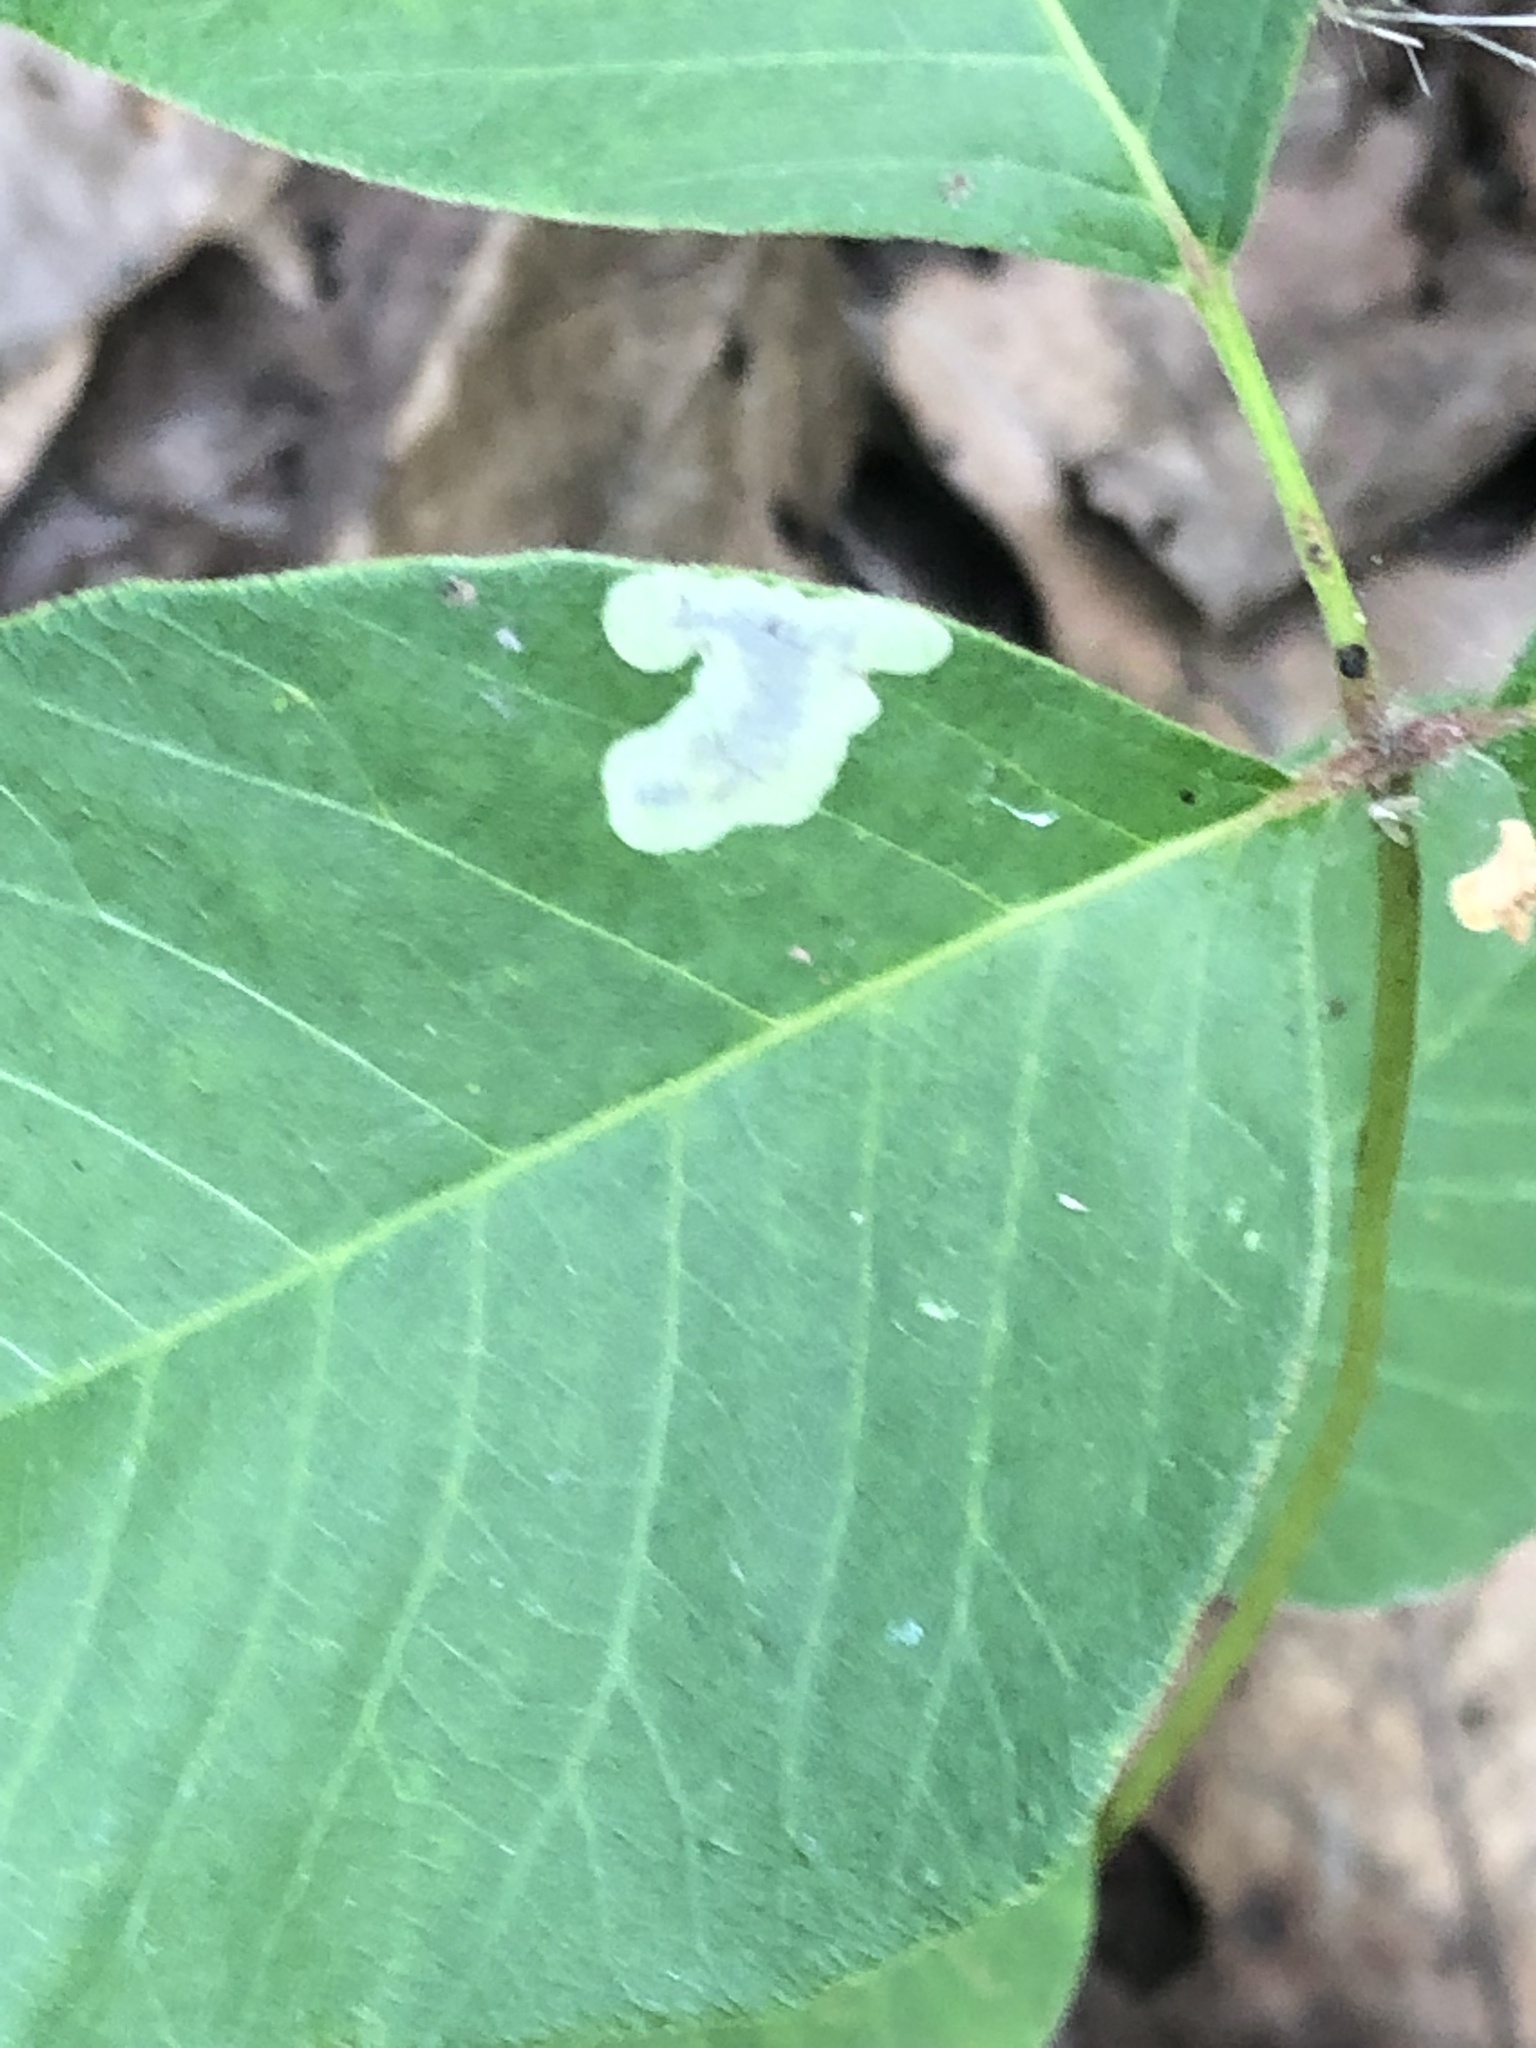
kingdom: Animalia
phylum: Arthropoda
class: Insecta
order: Lepidoptera
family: Gracillariidae
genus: Cameraria
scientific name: Cameraria guttifinitella
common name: Poison ivy leaf-miner moth
